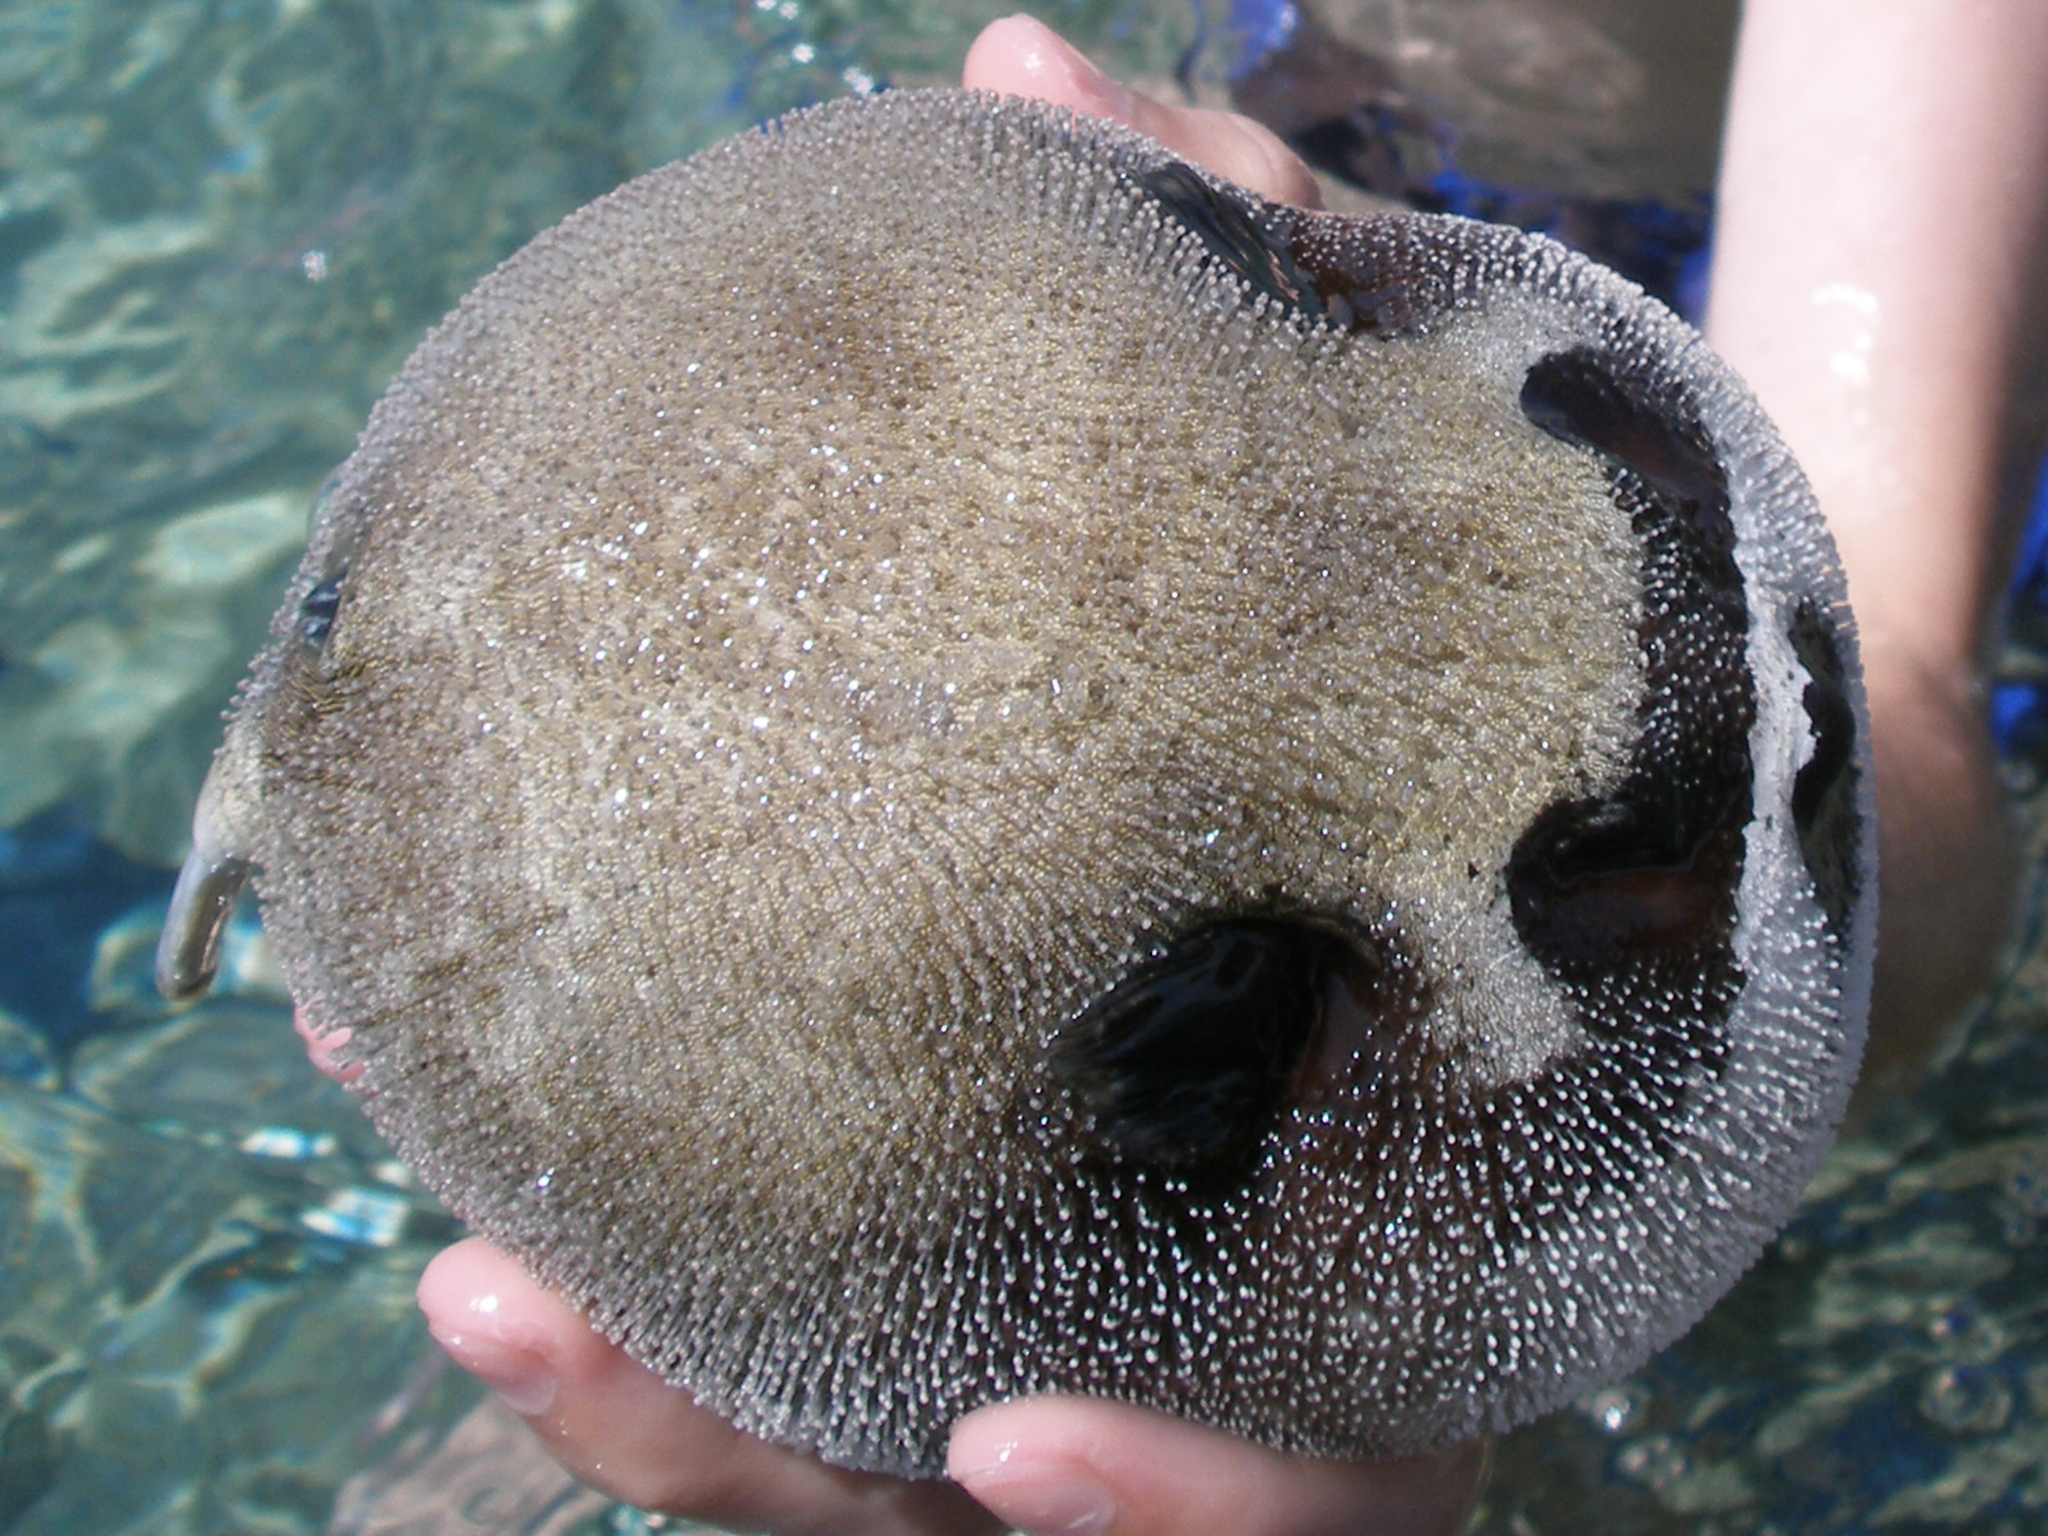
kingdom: Animalia
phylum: Chordata
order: Tetraodontiformes
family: Tetraodontidae
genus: Arothron
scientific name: Arothron diadematus
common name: Masked puffer
